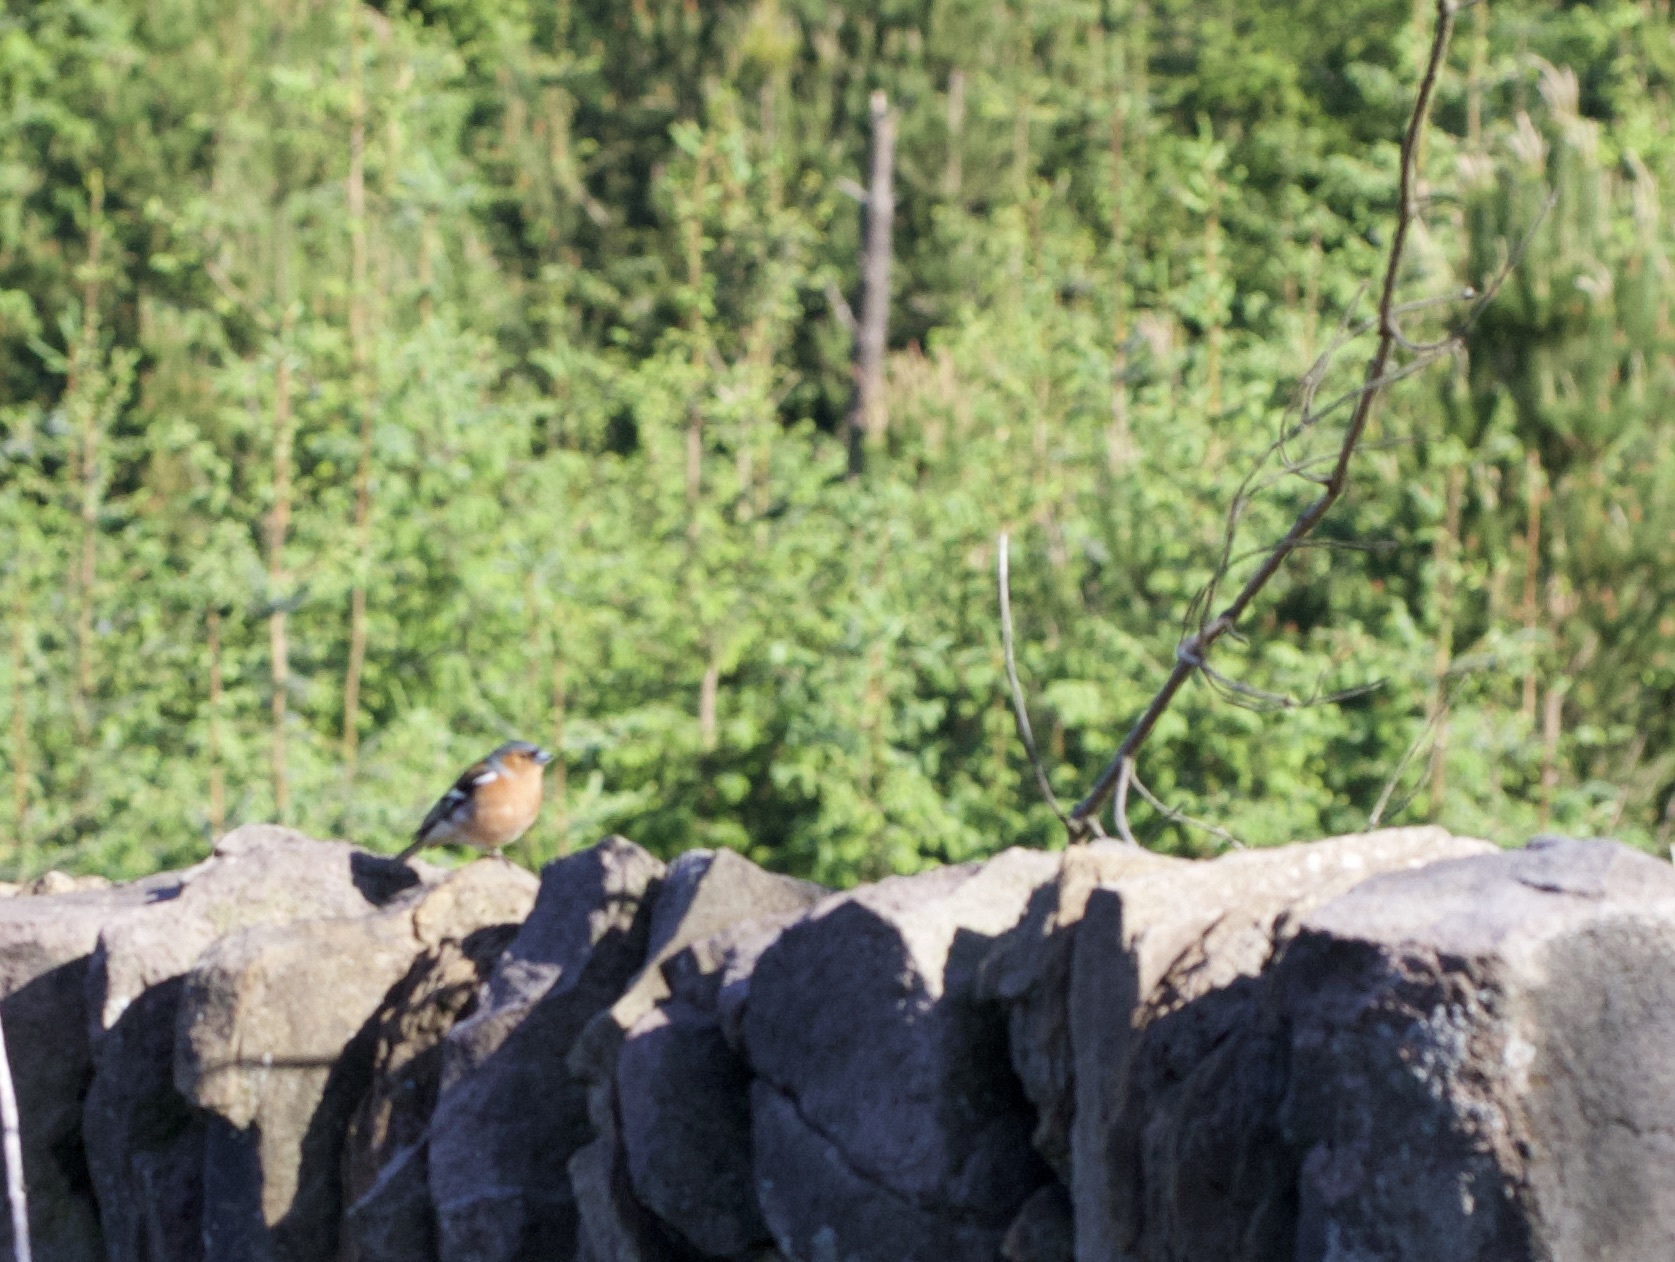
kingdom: Animalia
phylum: Chordata
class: Aves
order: Passeriformes
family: Fringillidae
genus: Fringilla
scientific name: Fringilla coelebs
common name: Common chaffinch
